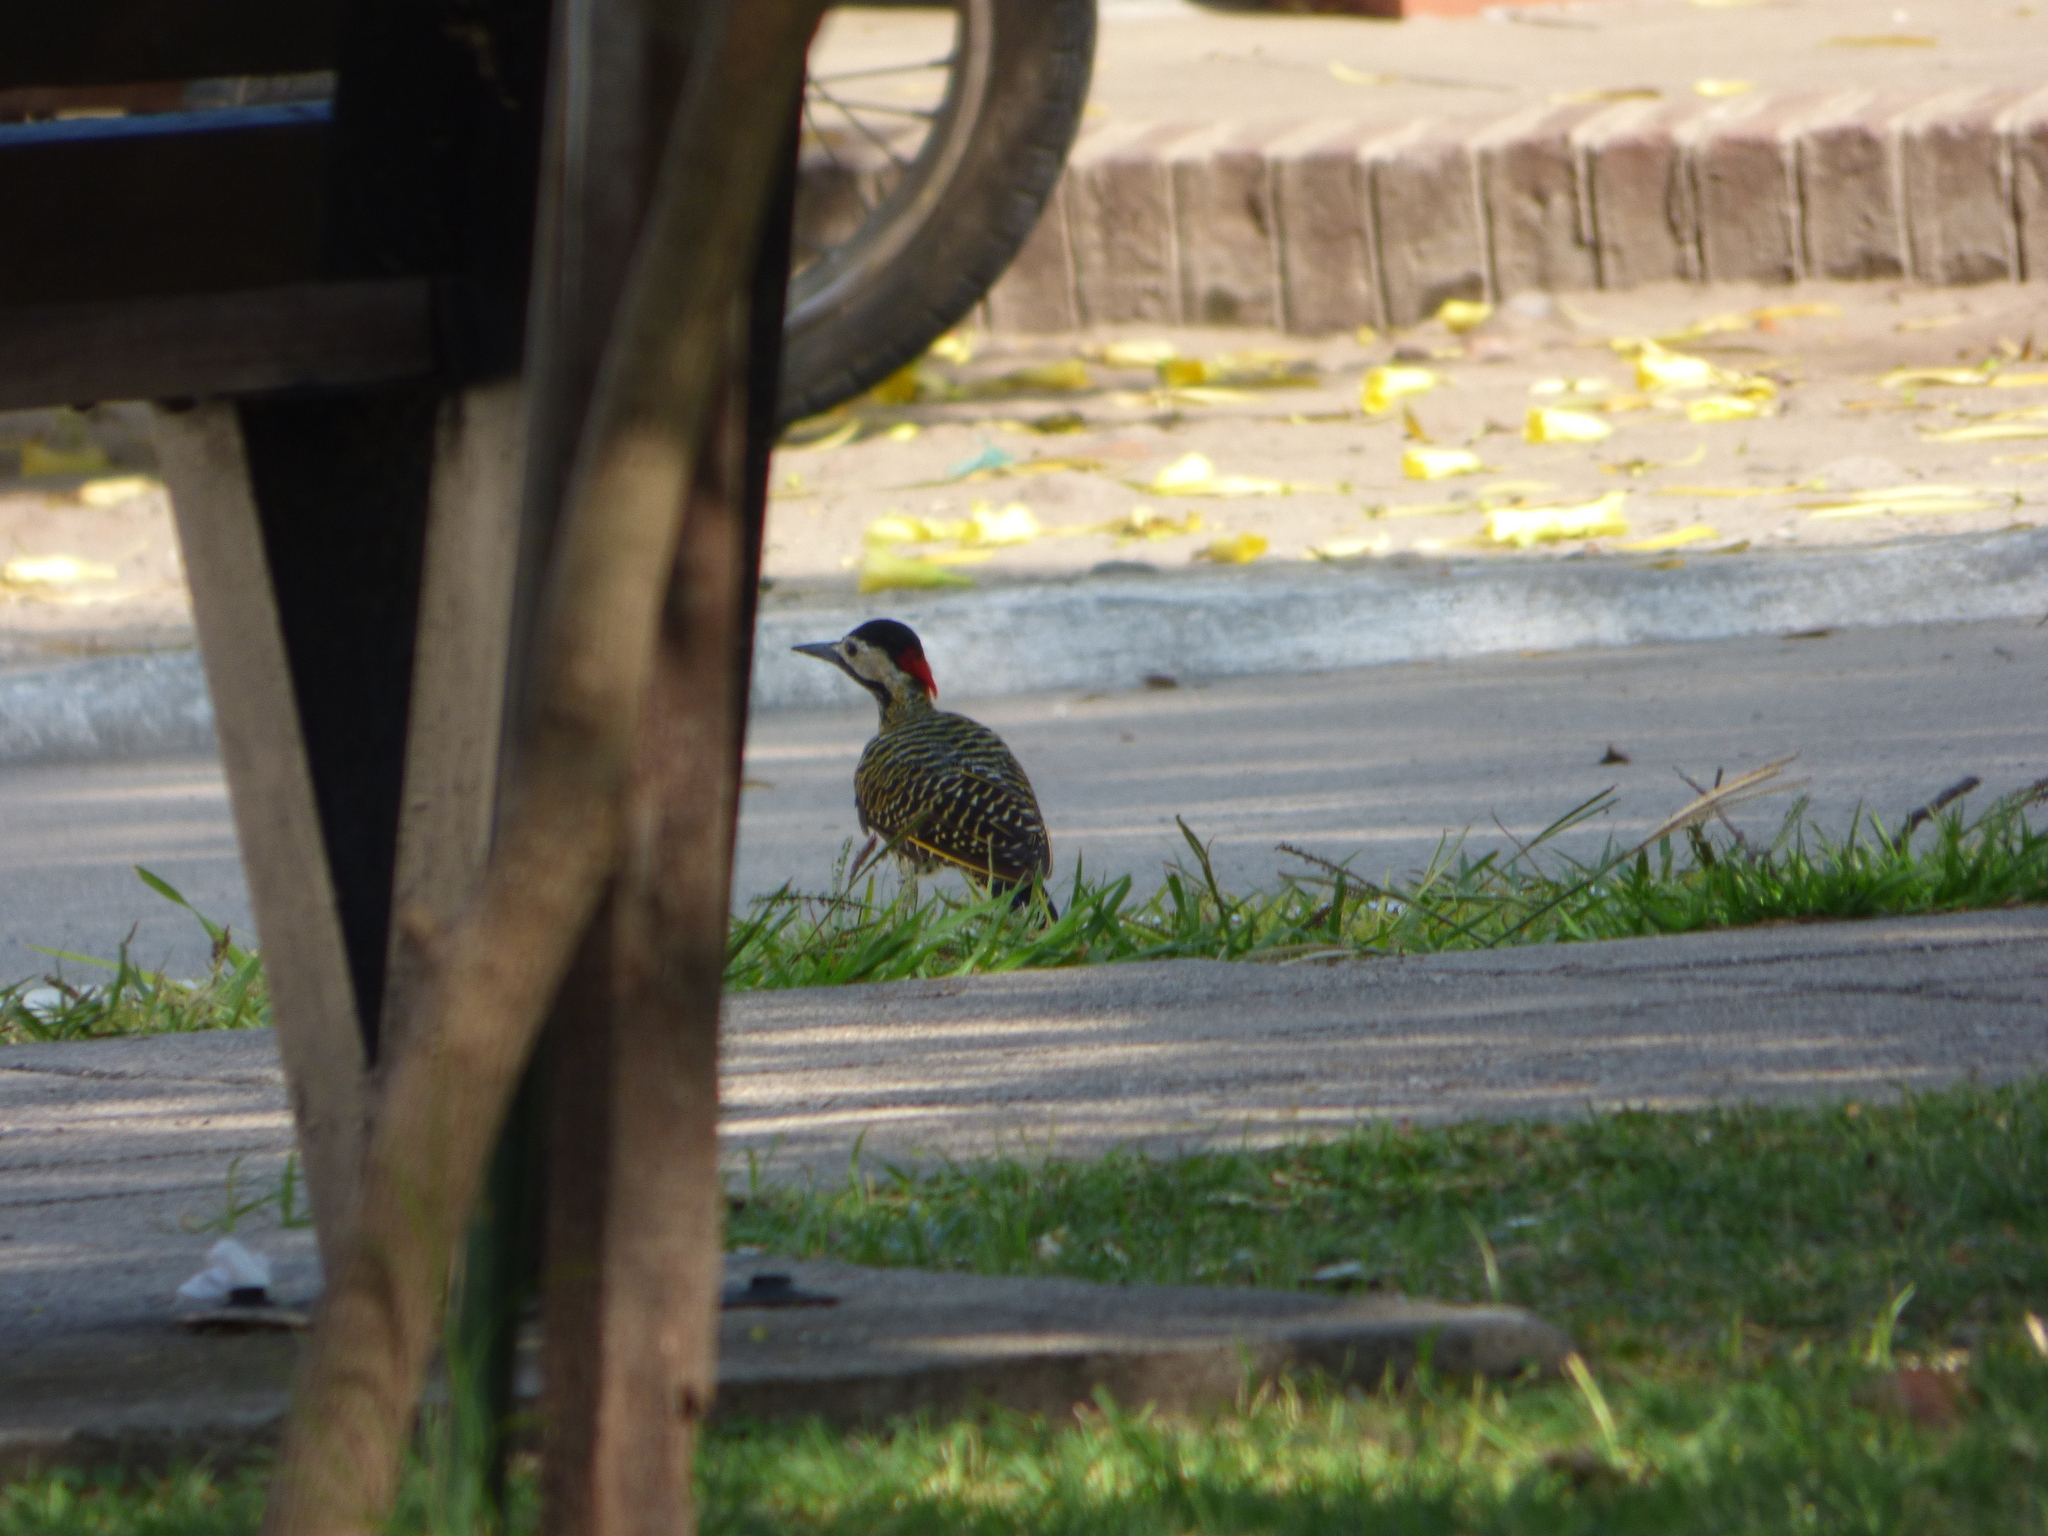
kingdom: Animalia
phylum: Chordata
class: Aves
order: Piciformes
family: Picidae
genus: Colaptes
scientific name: Colaptes melanochloros
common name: Green-barred woodpecker
